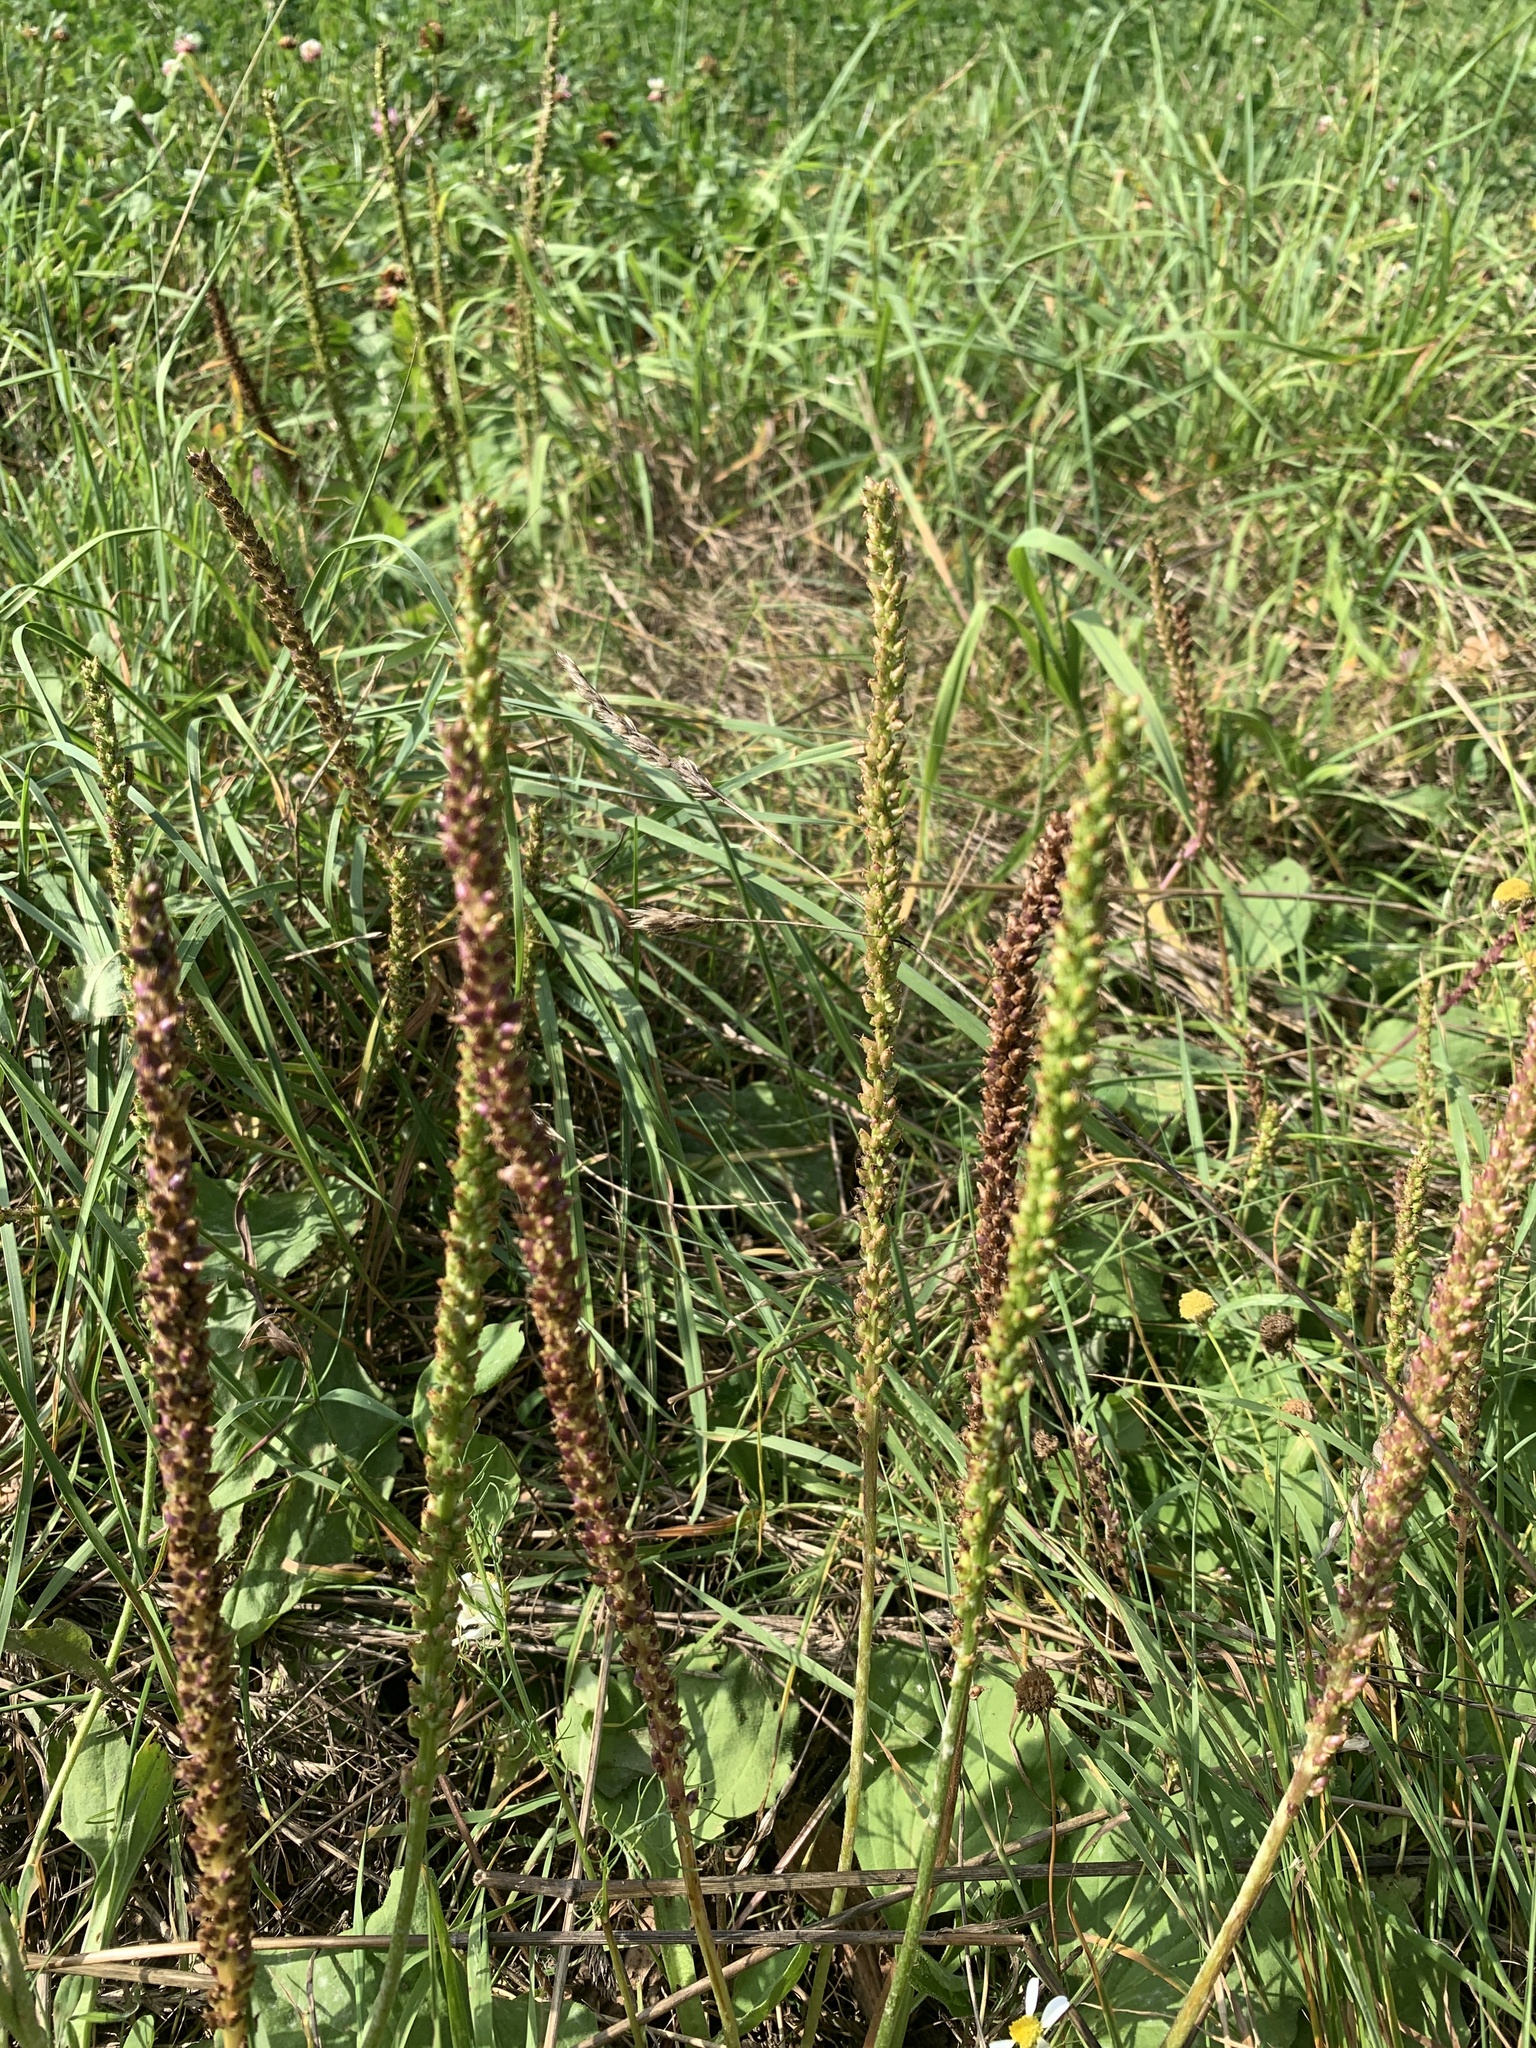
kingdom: Plantae
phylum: Tracheophyta
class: Magnoliopsida
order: Lamiales
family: Plantaginaceae
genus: Plantago
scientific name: Plantago major
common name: Common plantain
